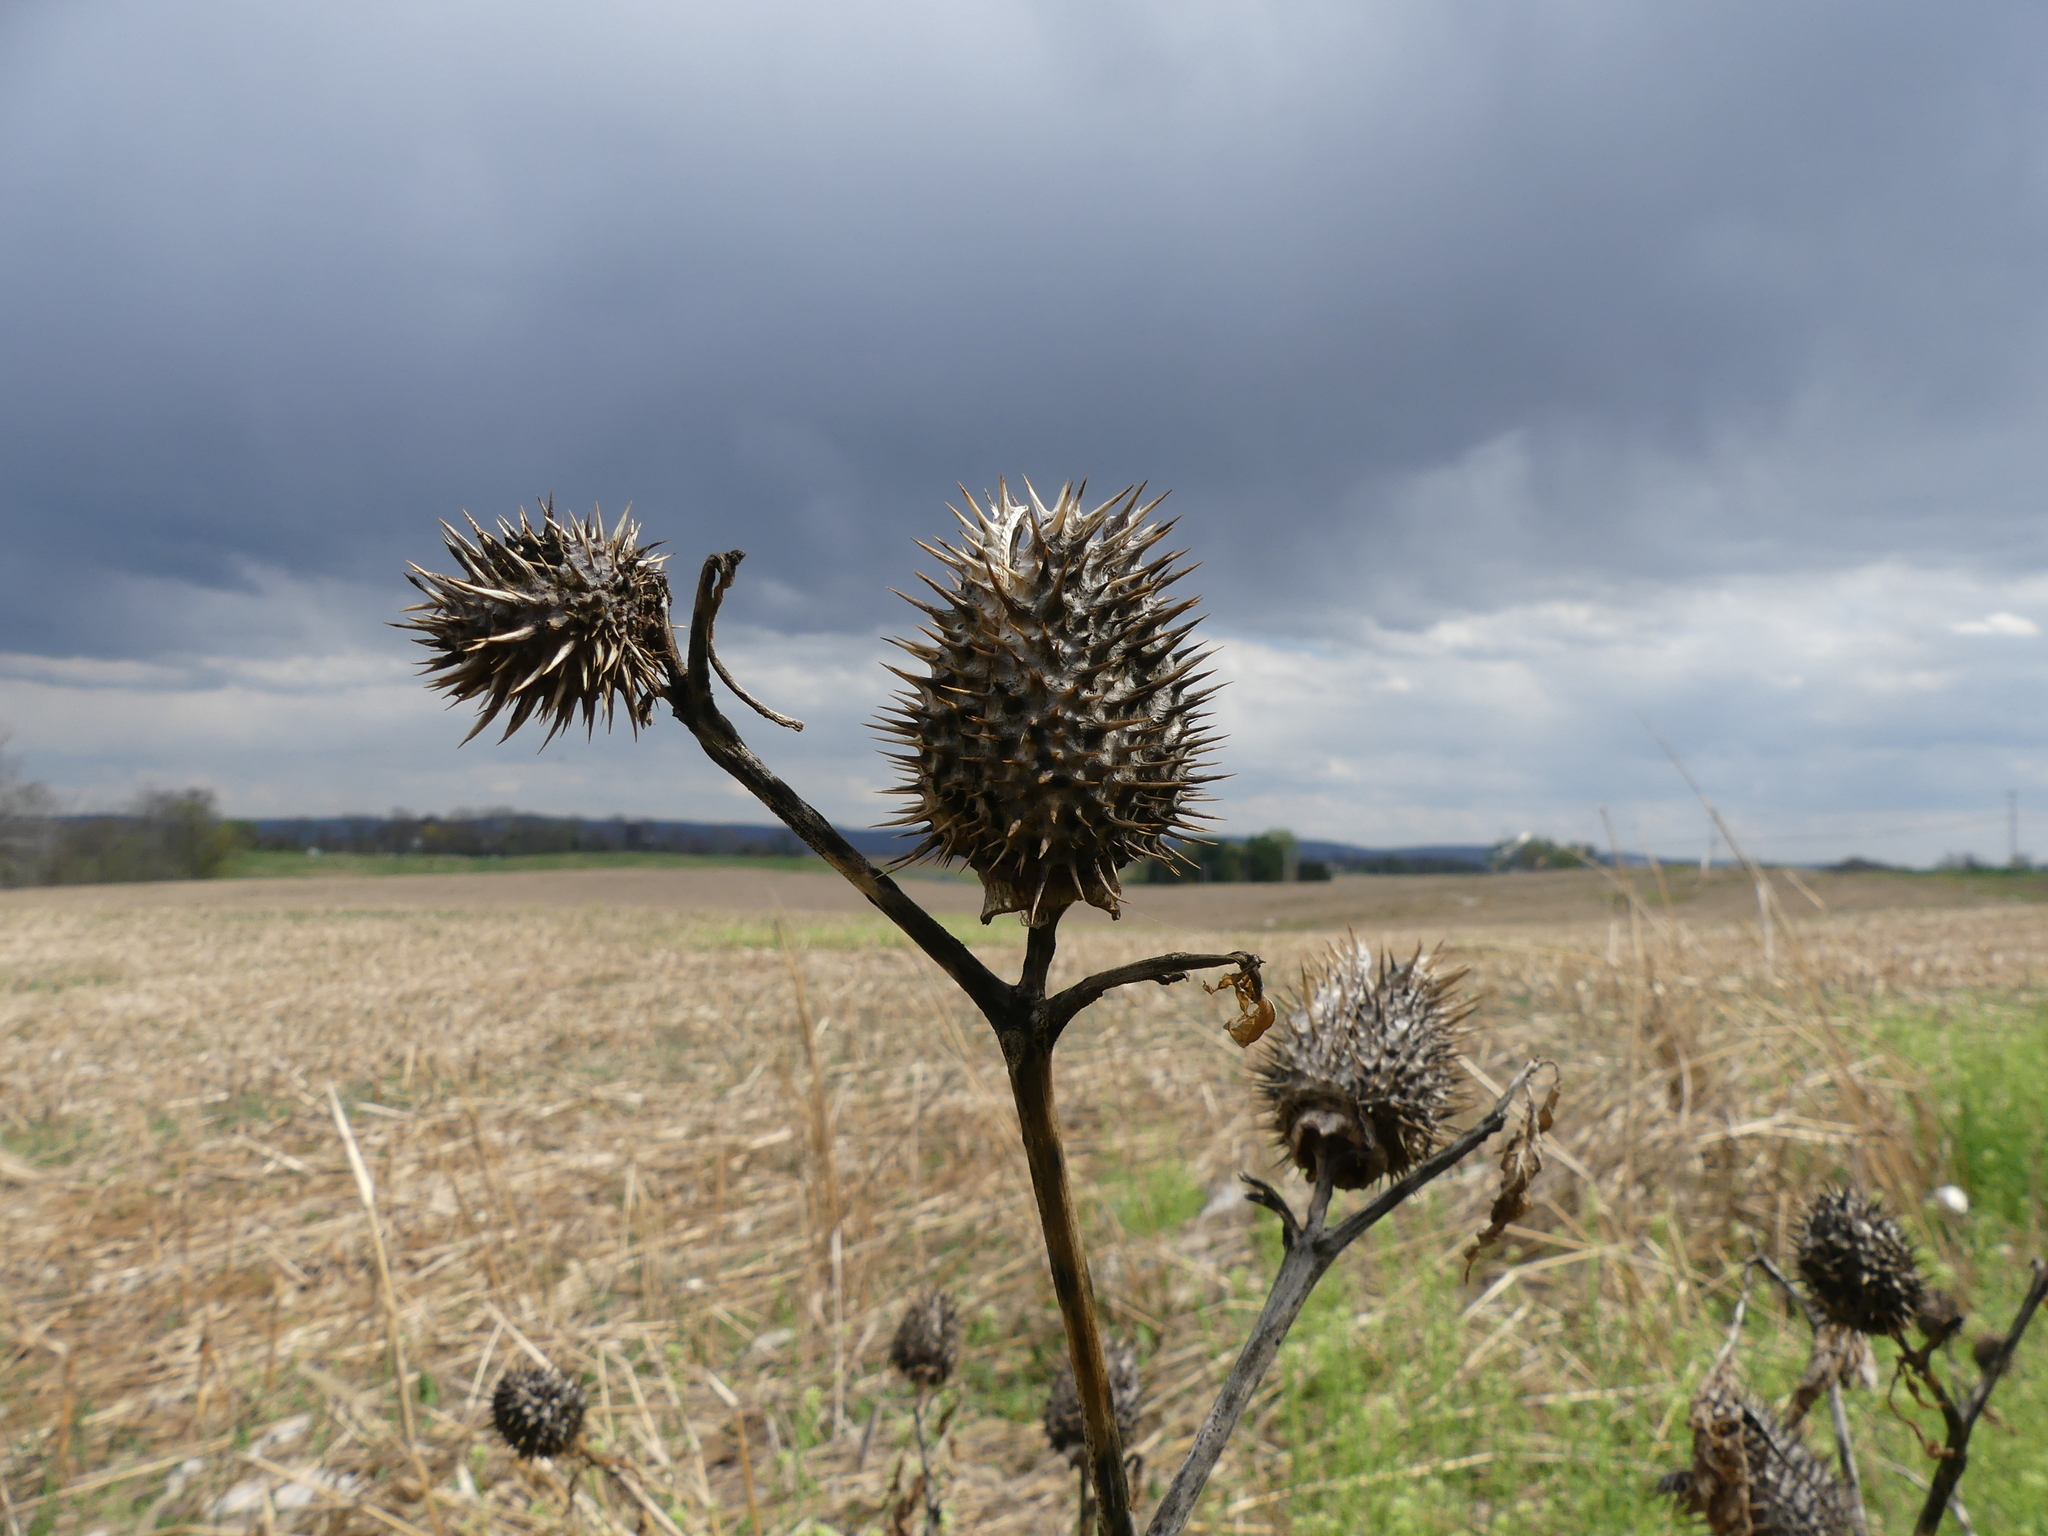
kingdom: Plantae
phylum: Tracheophyta
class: Magnoliopsida
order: Solanales
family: Solanaceae
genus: Datura
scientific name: Datura stramonium
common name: Thorn-apple
